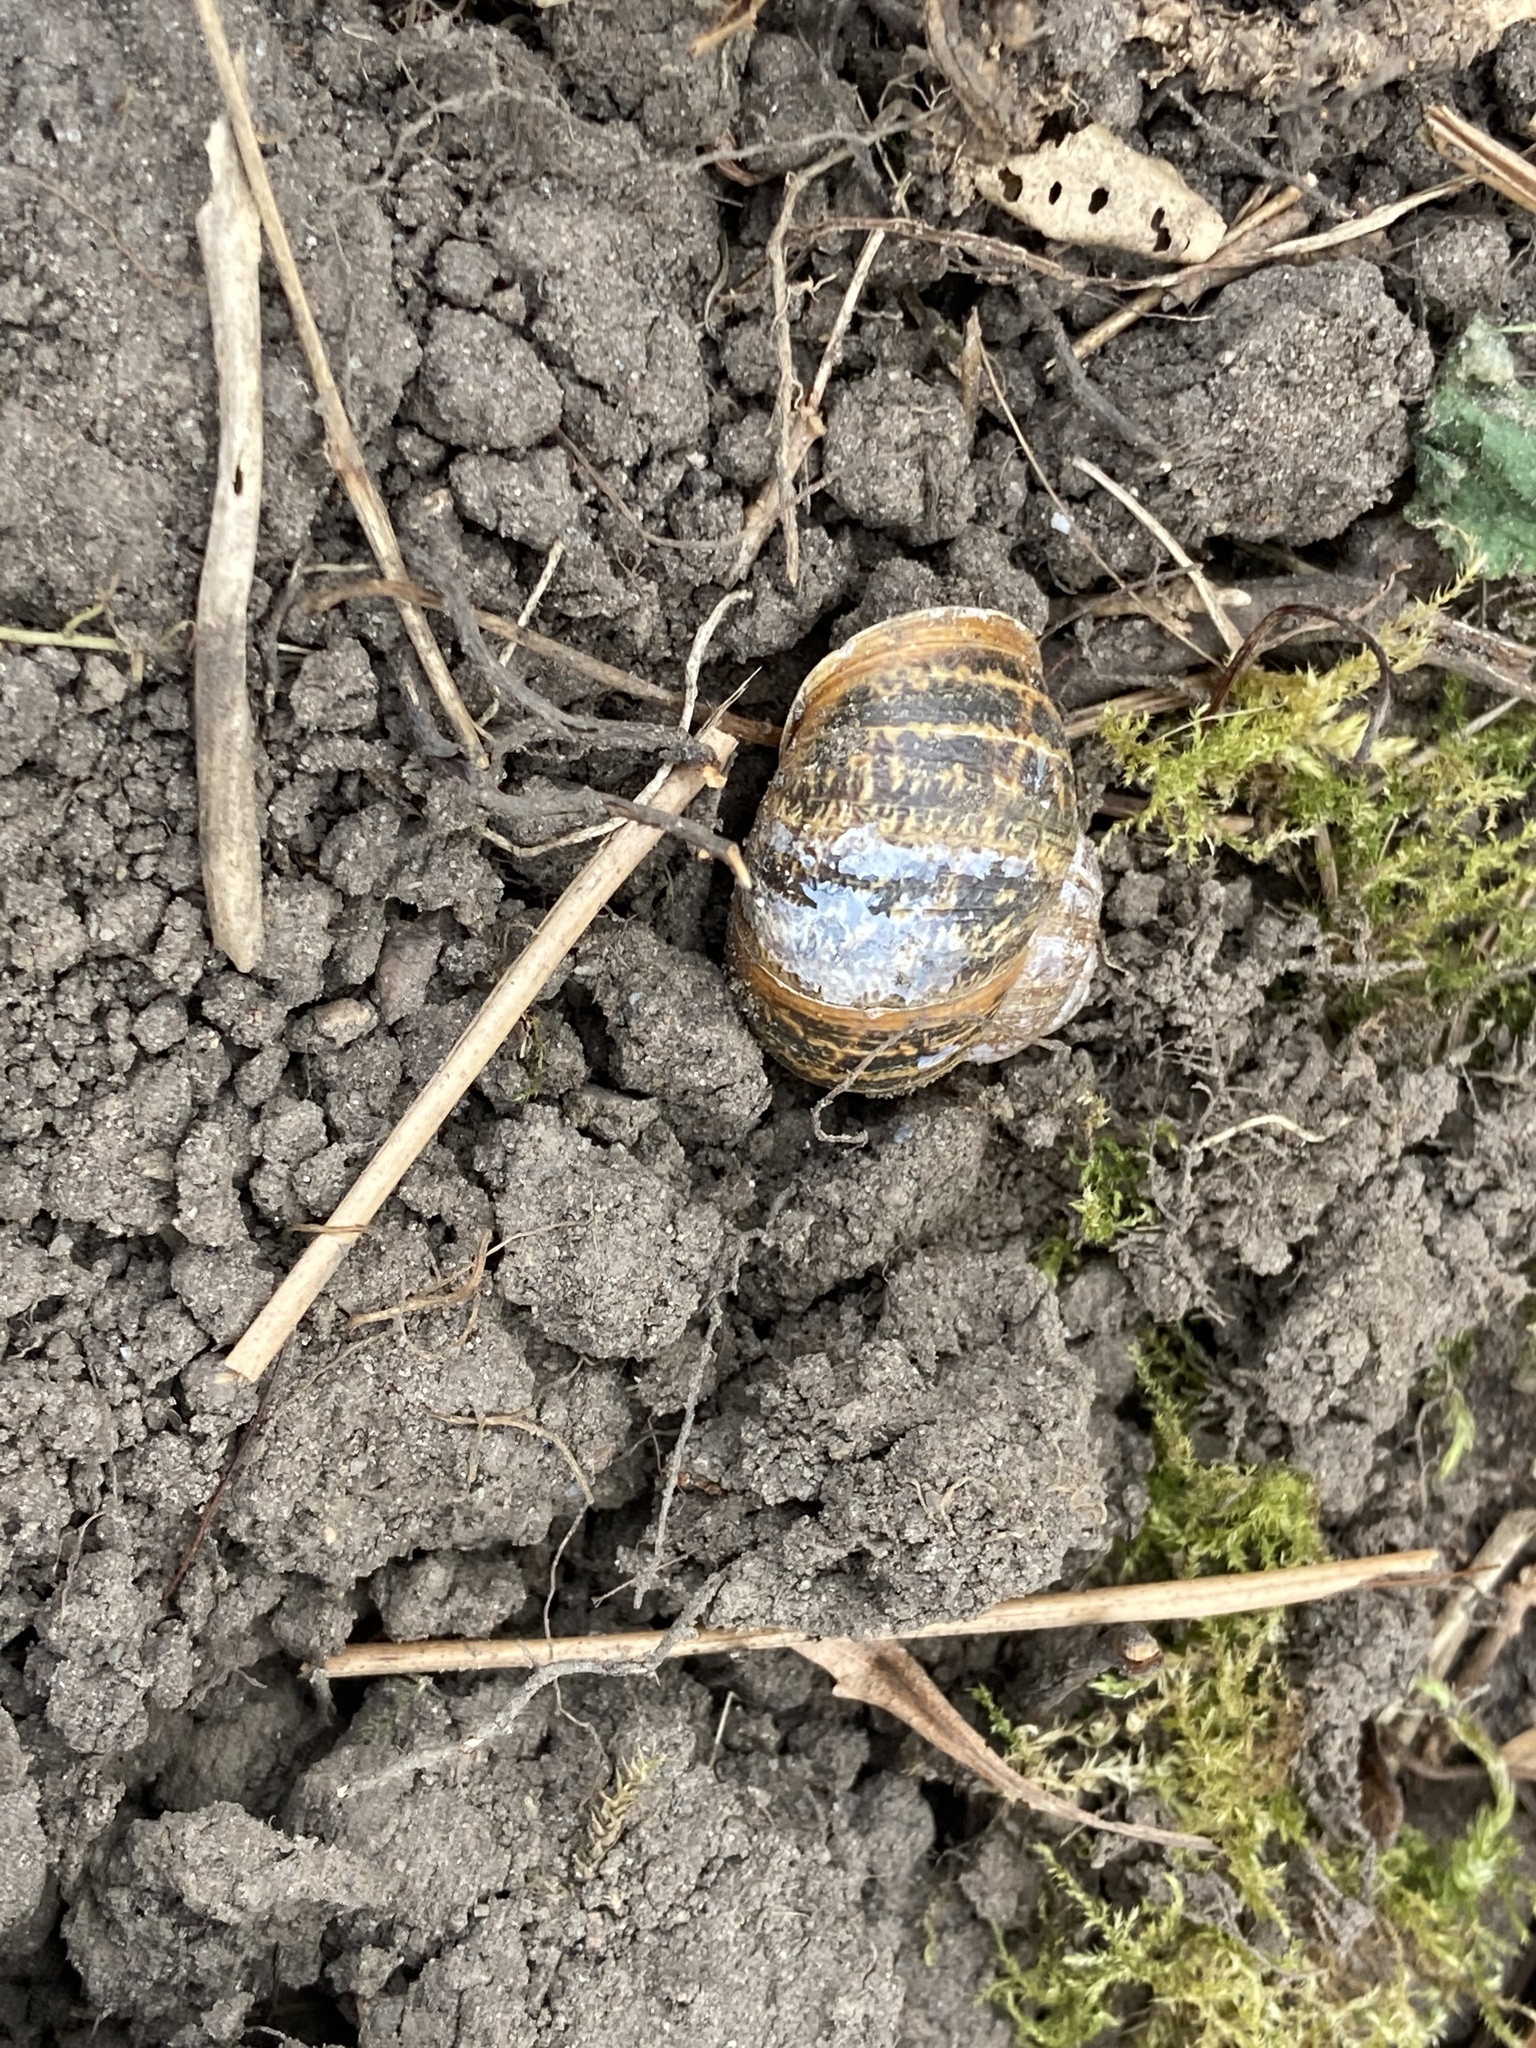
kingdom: Animalia
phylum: Mollusca
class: Gastropoda
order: Stylommatophora
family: Helicidae
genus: Cornu
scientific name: Cornu aspersum
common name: Brown garden snail
